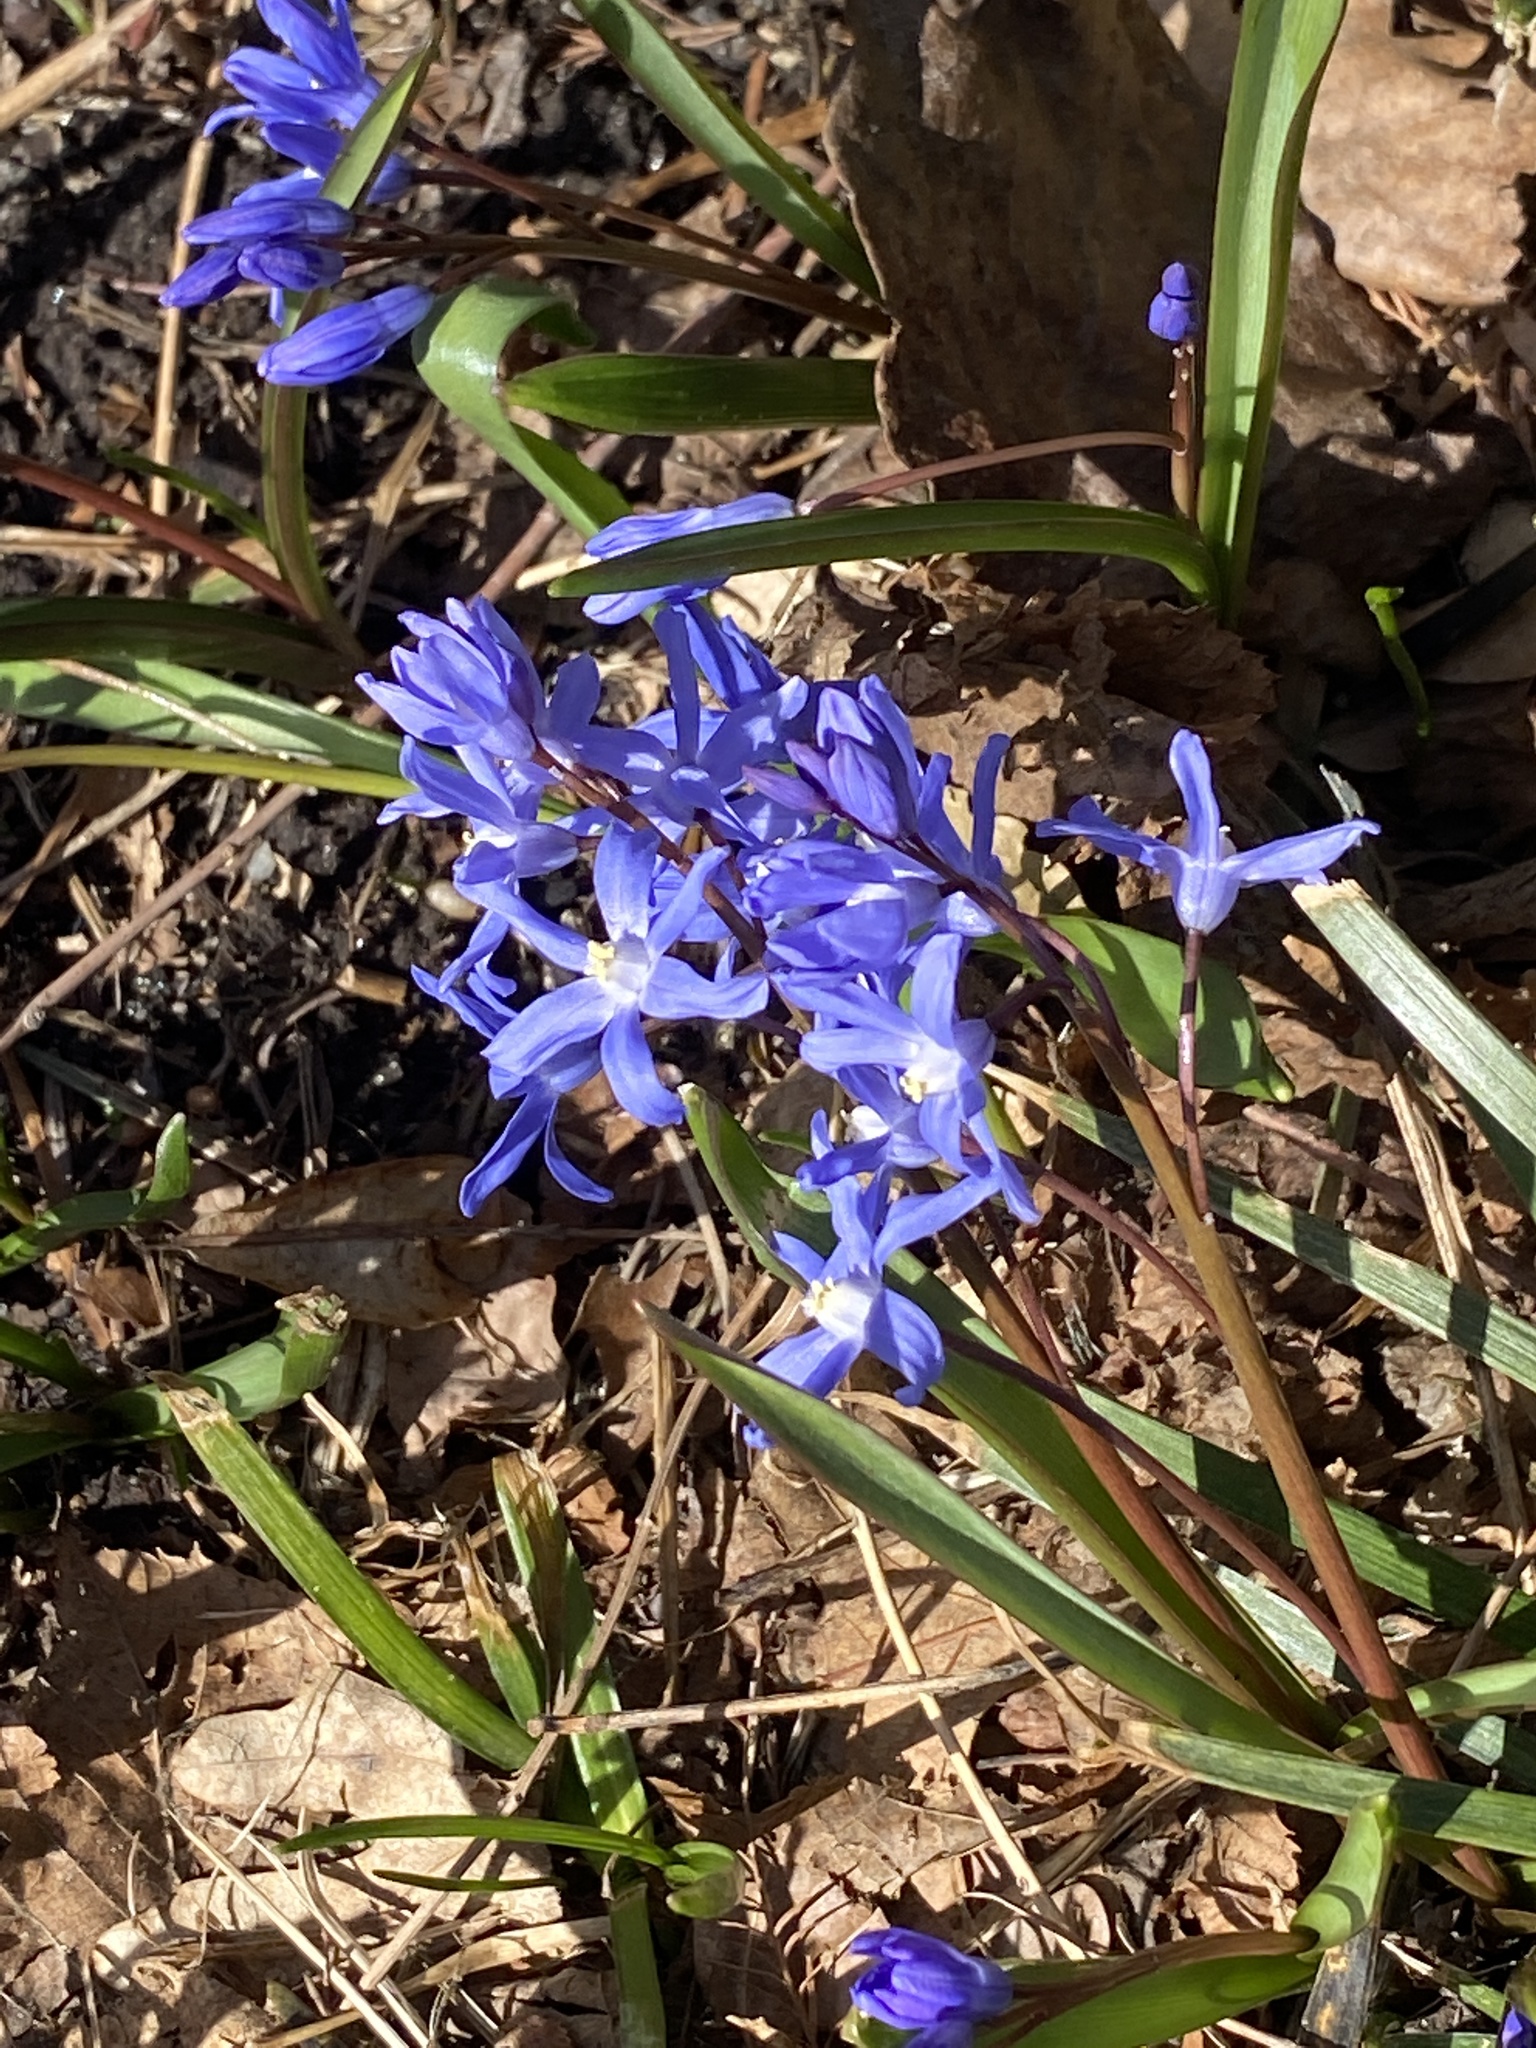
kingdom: Plantae
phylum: Tracheophyta
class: Liliopsida
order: Asparagales
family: Asparagaceae
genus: Scilla
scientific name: Scilla sardensis
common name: Lesser glory-of-the-snow
